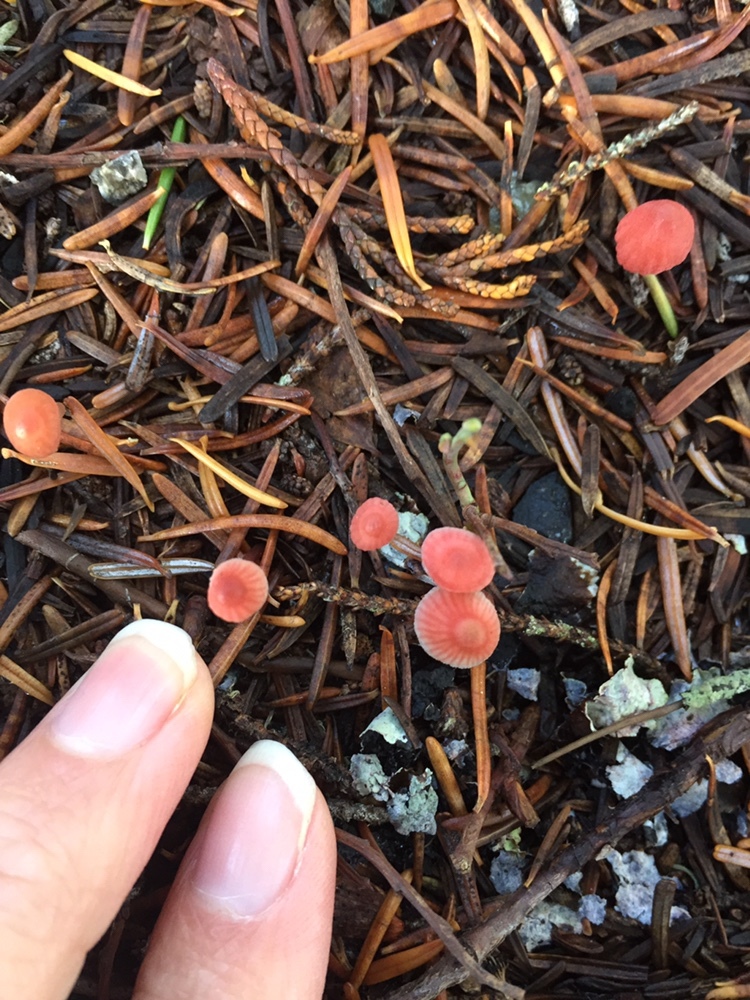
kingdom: Fungi
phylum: Basidiomycota
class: Agaricomycetes
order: Agaricales
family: Mycenaceae
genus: Atheniella
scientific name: Atheniella adonis
